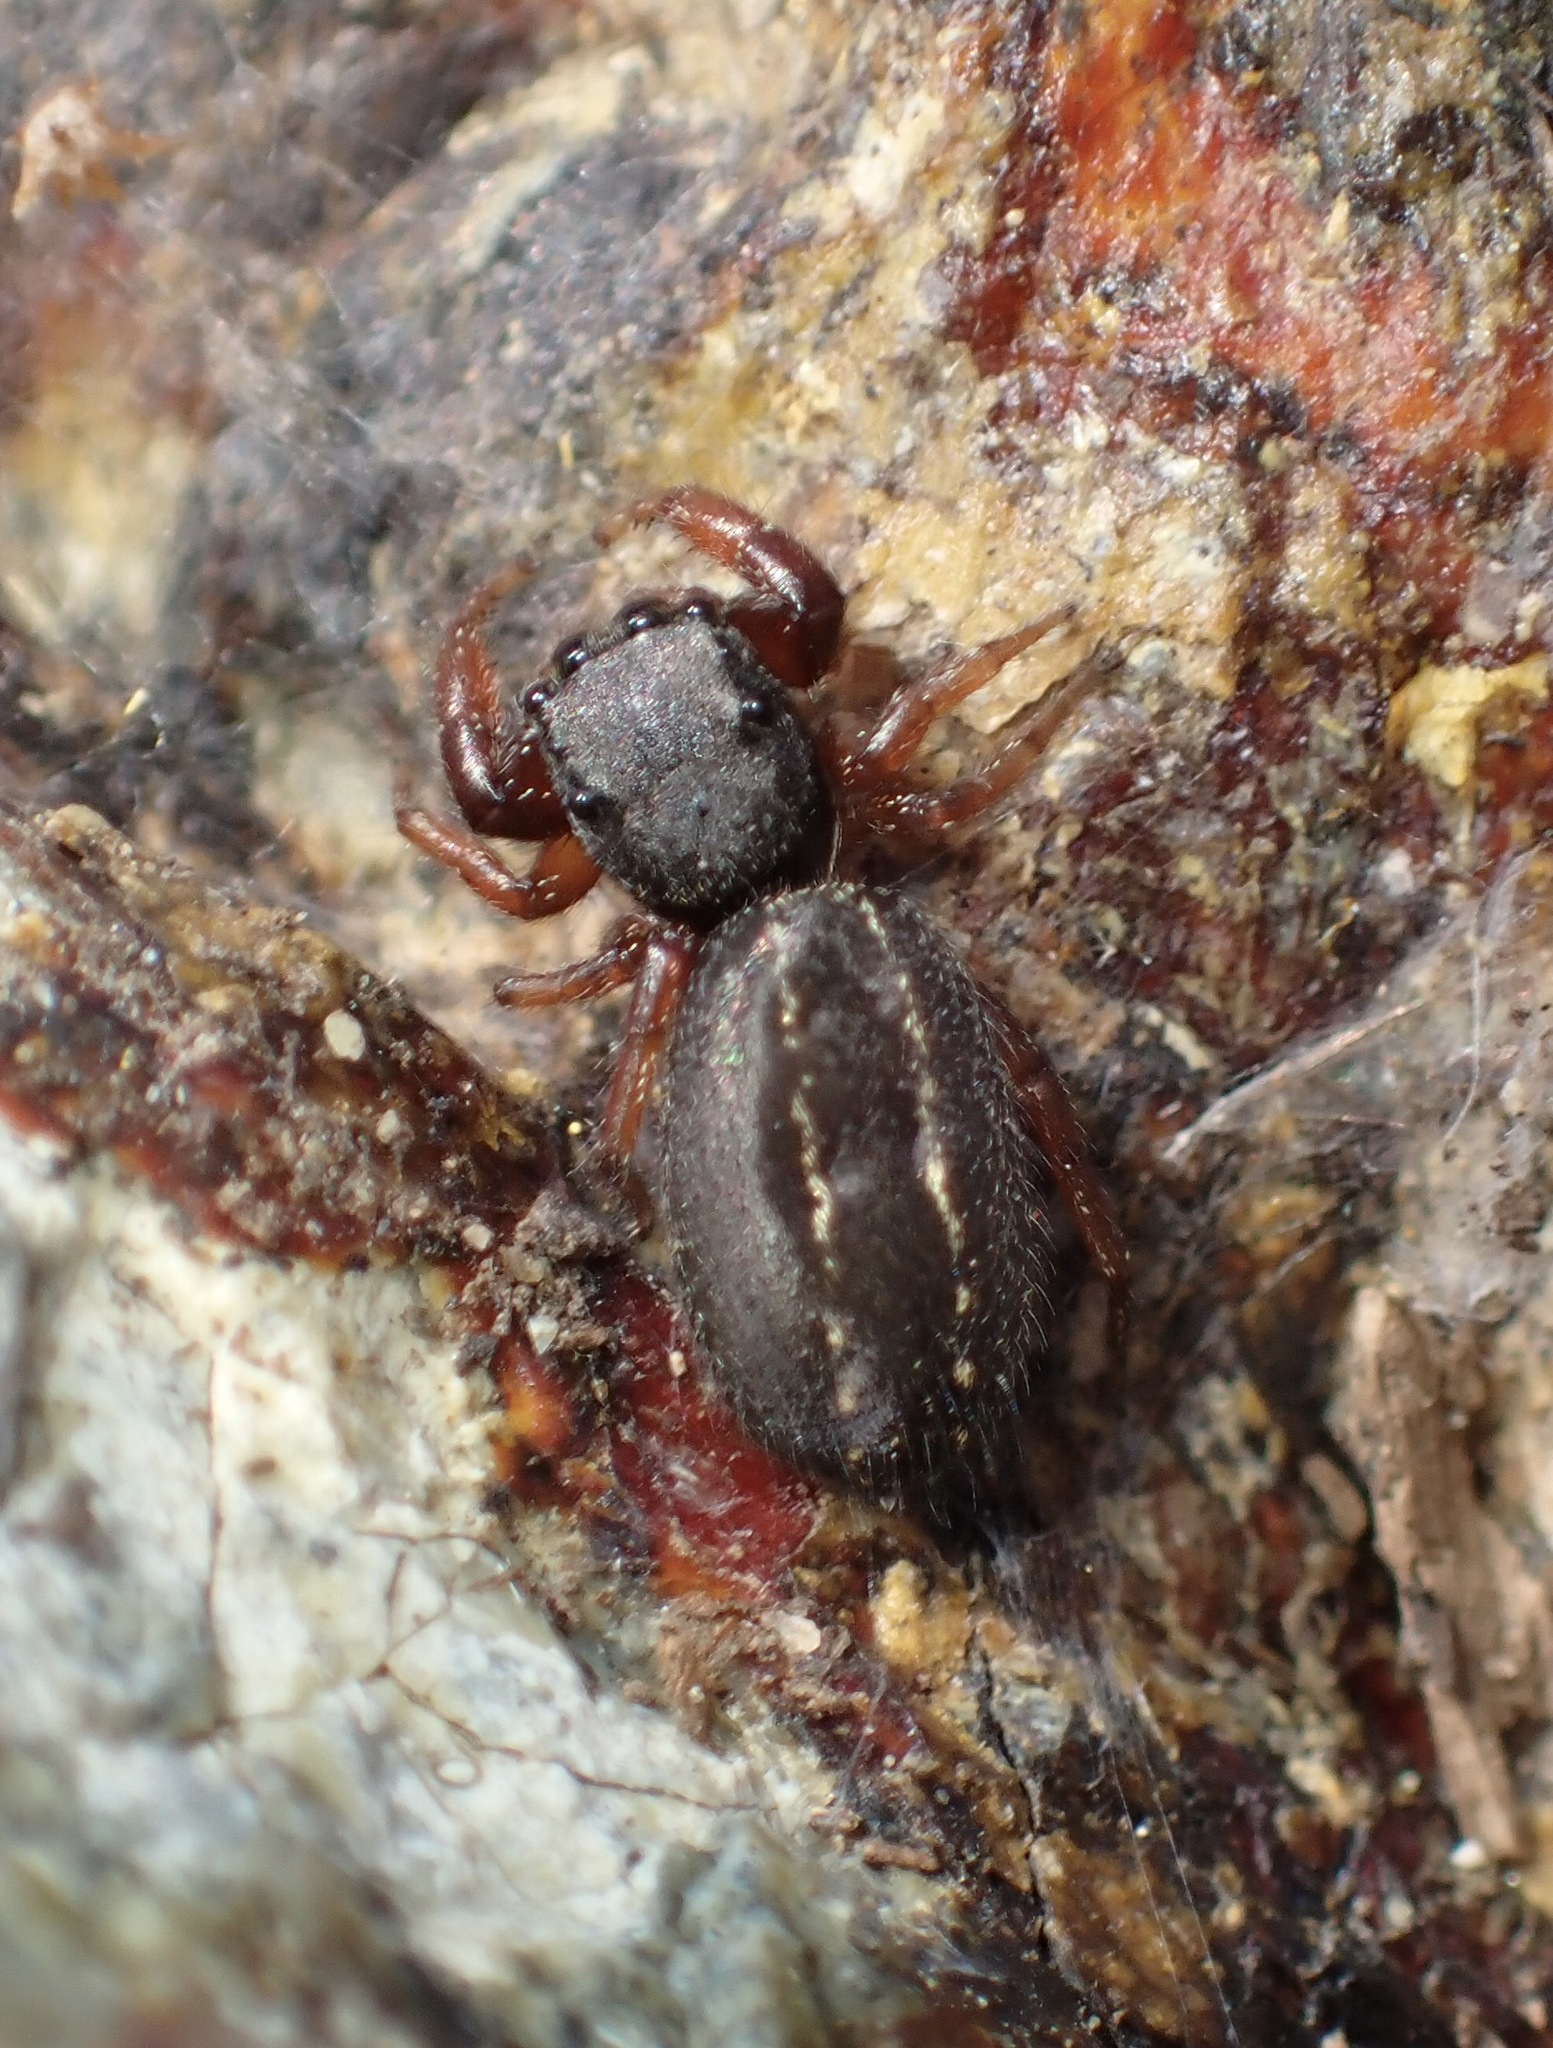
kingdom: Animalia
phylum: Arthropoda
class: Arachnida
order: Araneae
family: Salticidae
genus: Metacyrba
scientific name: Metacyrba taeniola
